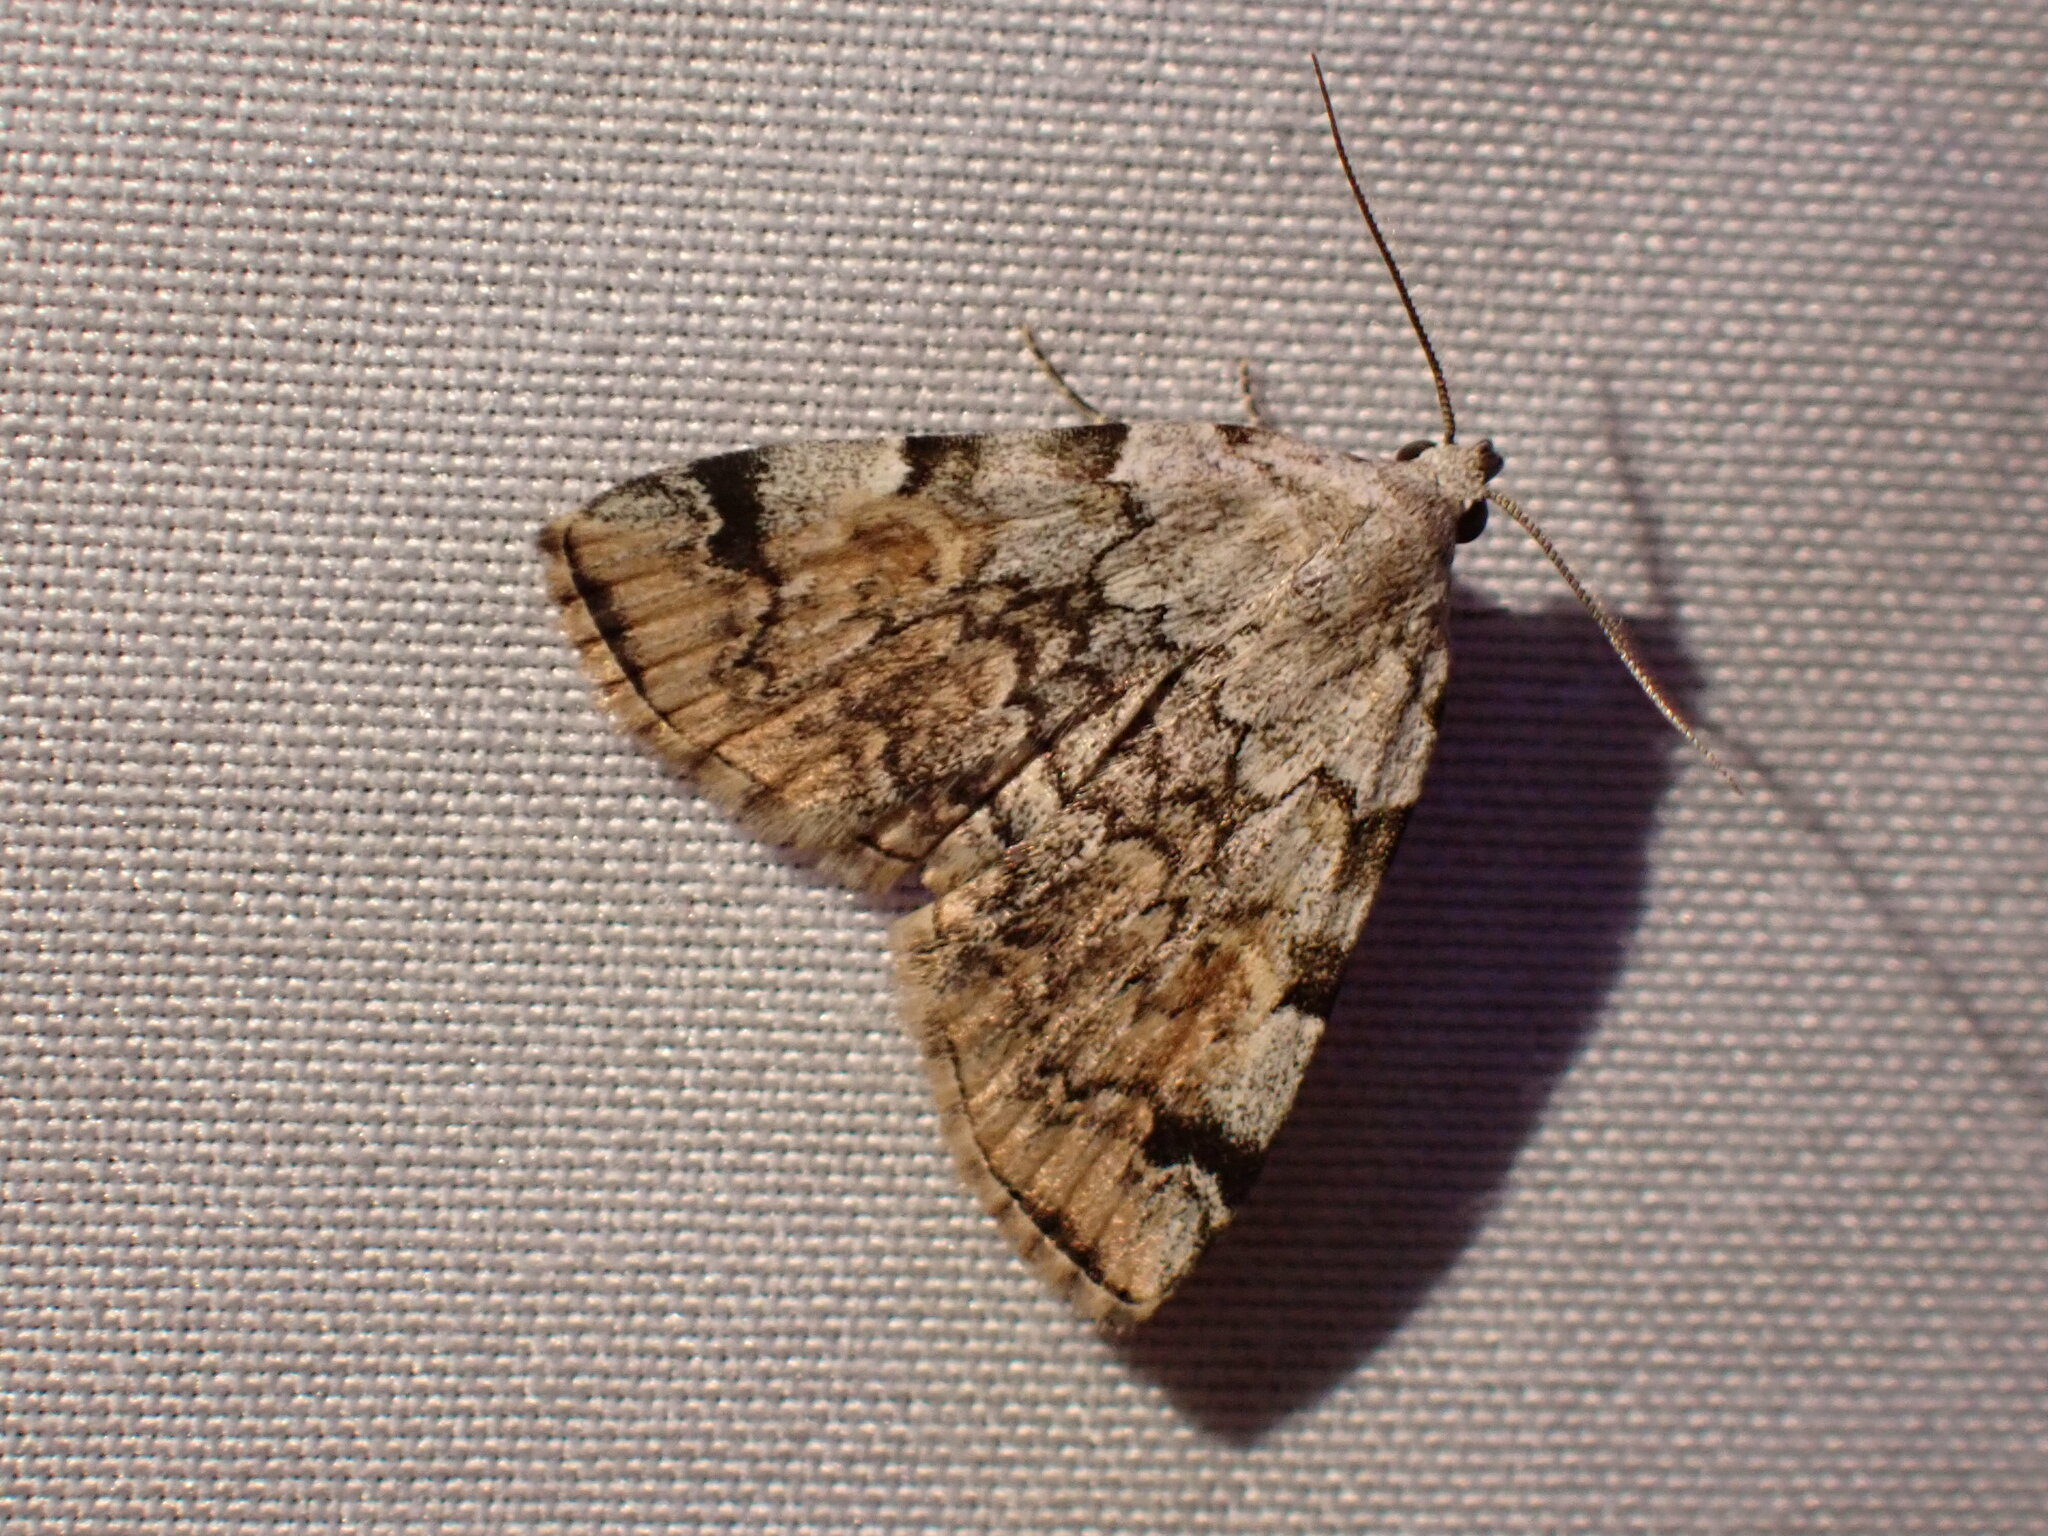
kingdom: Animalia
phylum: Arthropoda
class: Insecta
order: Lepidoptera
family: Erebidae
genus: Idia
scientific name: Idia americalis
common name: American idia moth
